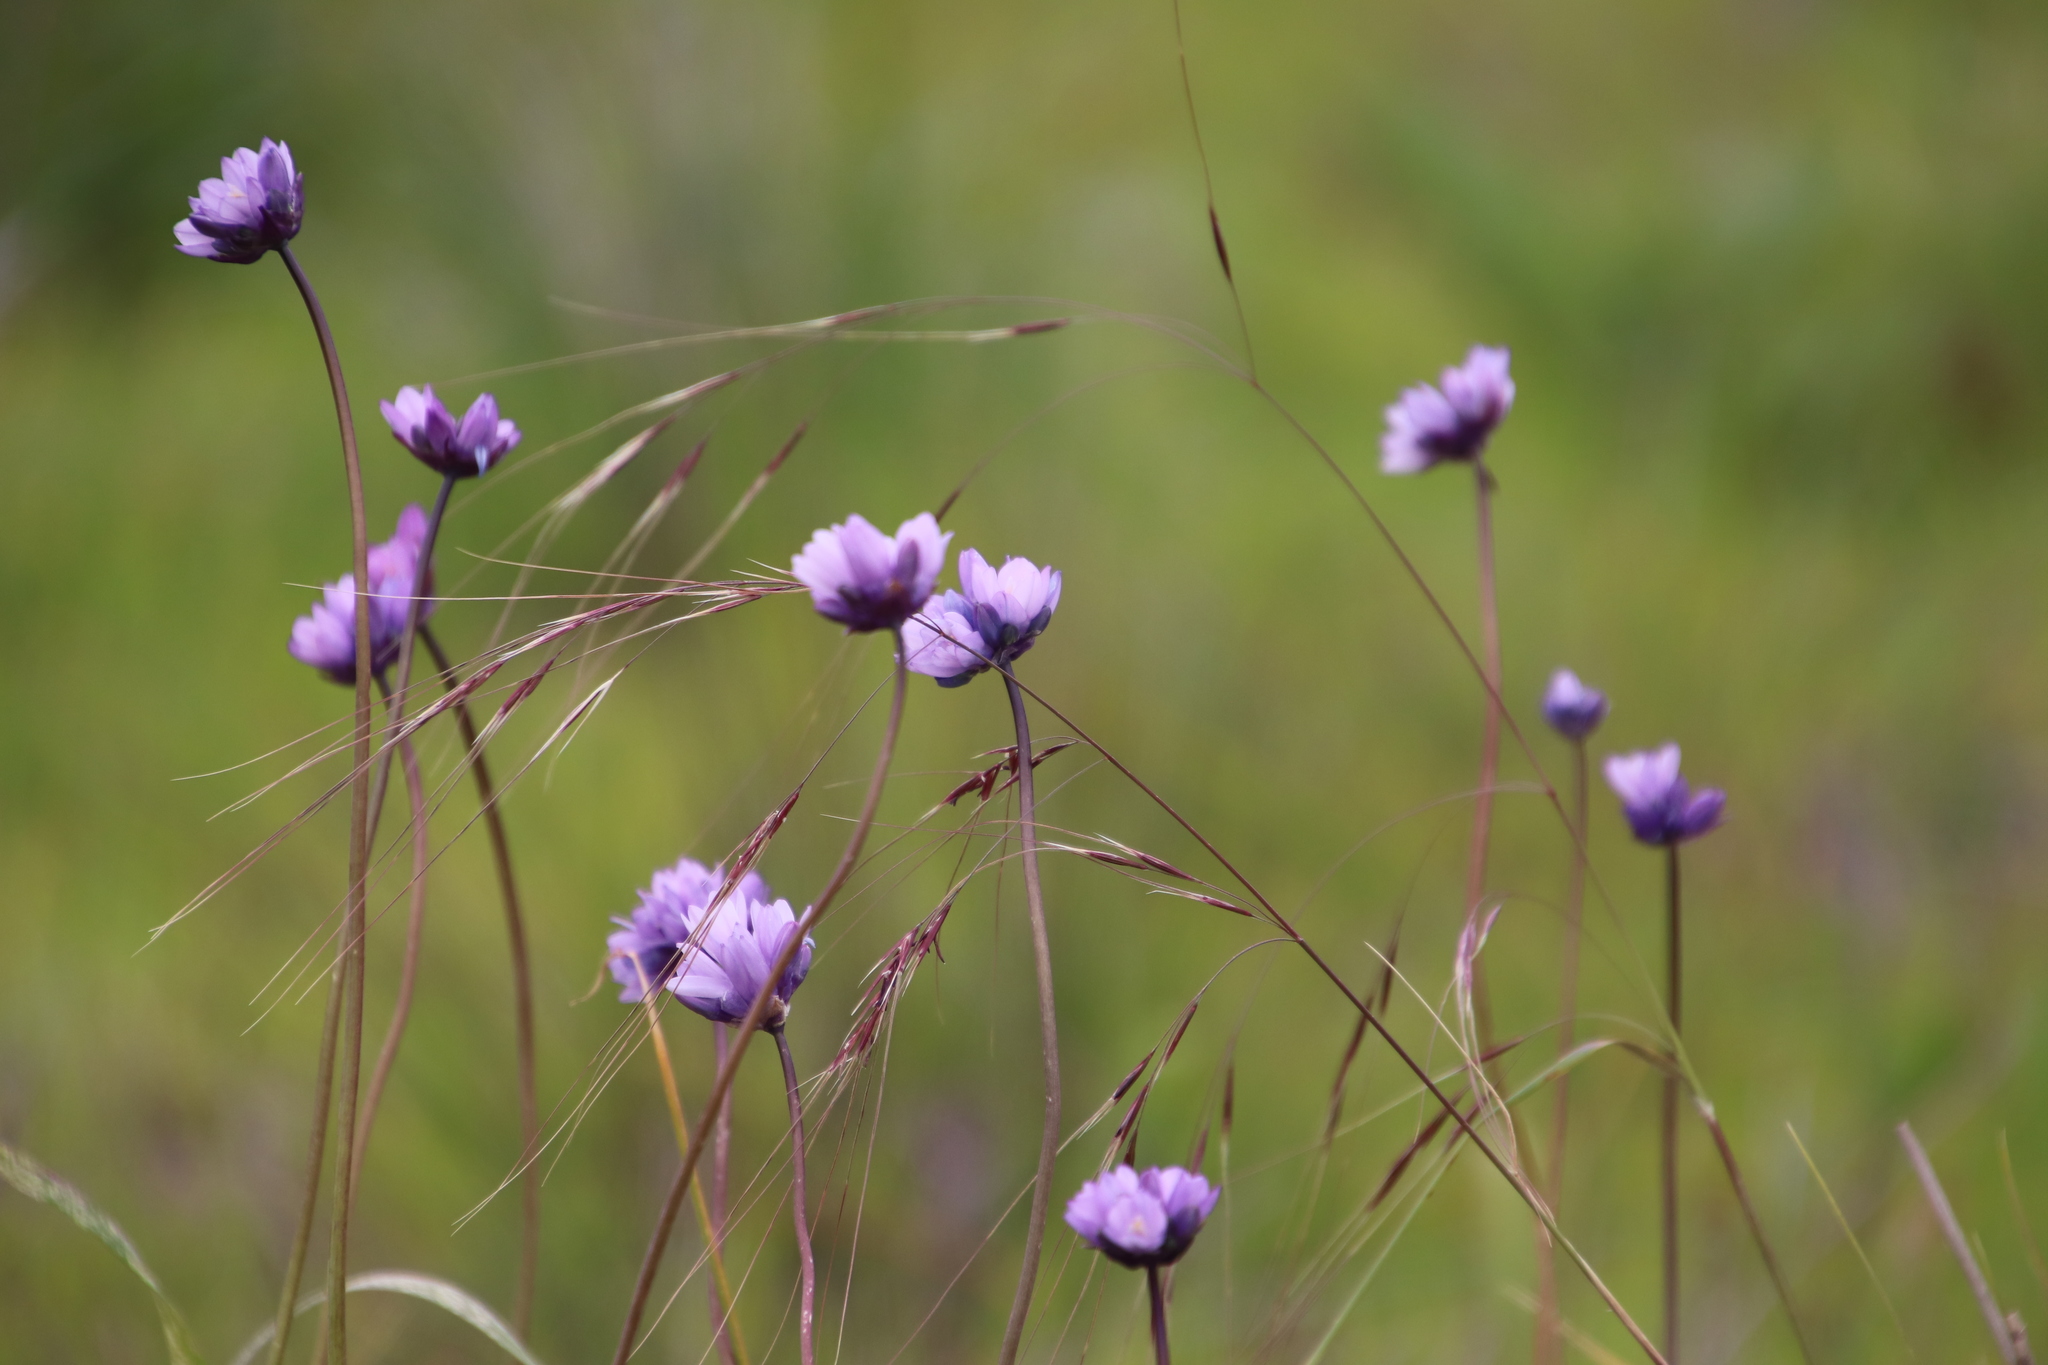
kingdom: Plantae
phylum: Tracheophyta
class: Liliopsida
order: Asparagales
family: Asparagaceae
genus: Dipterostemon
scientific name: Dipterostemon capitatus
